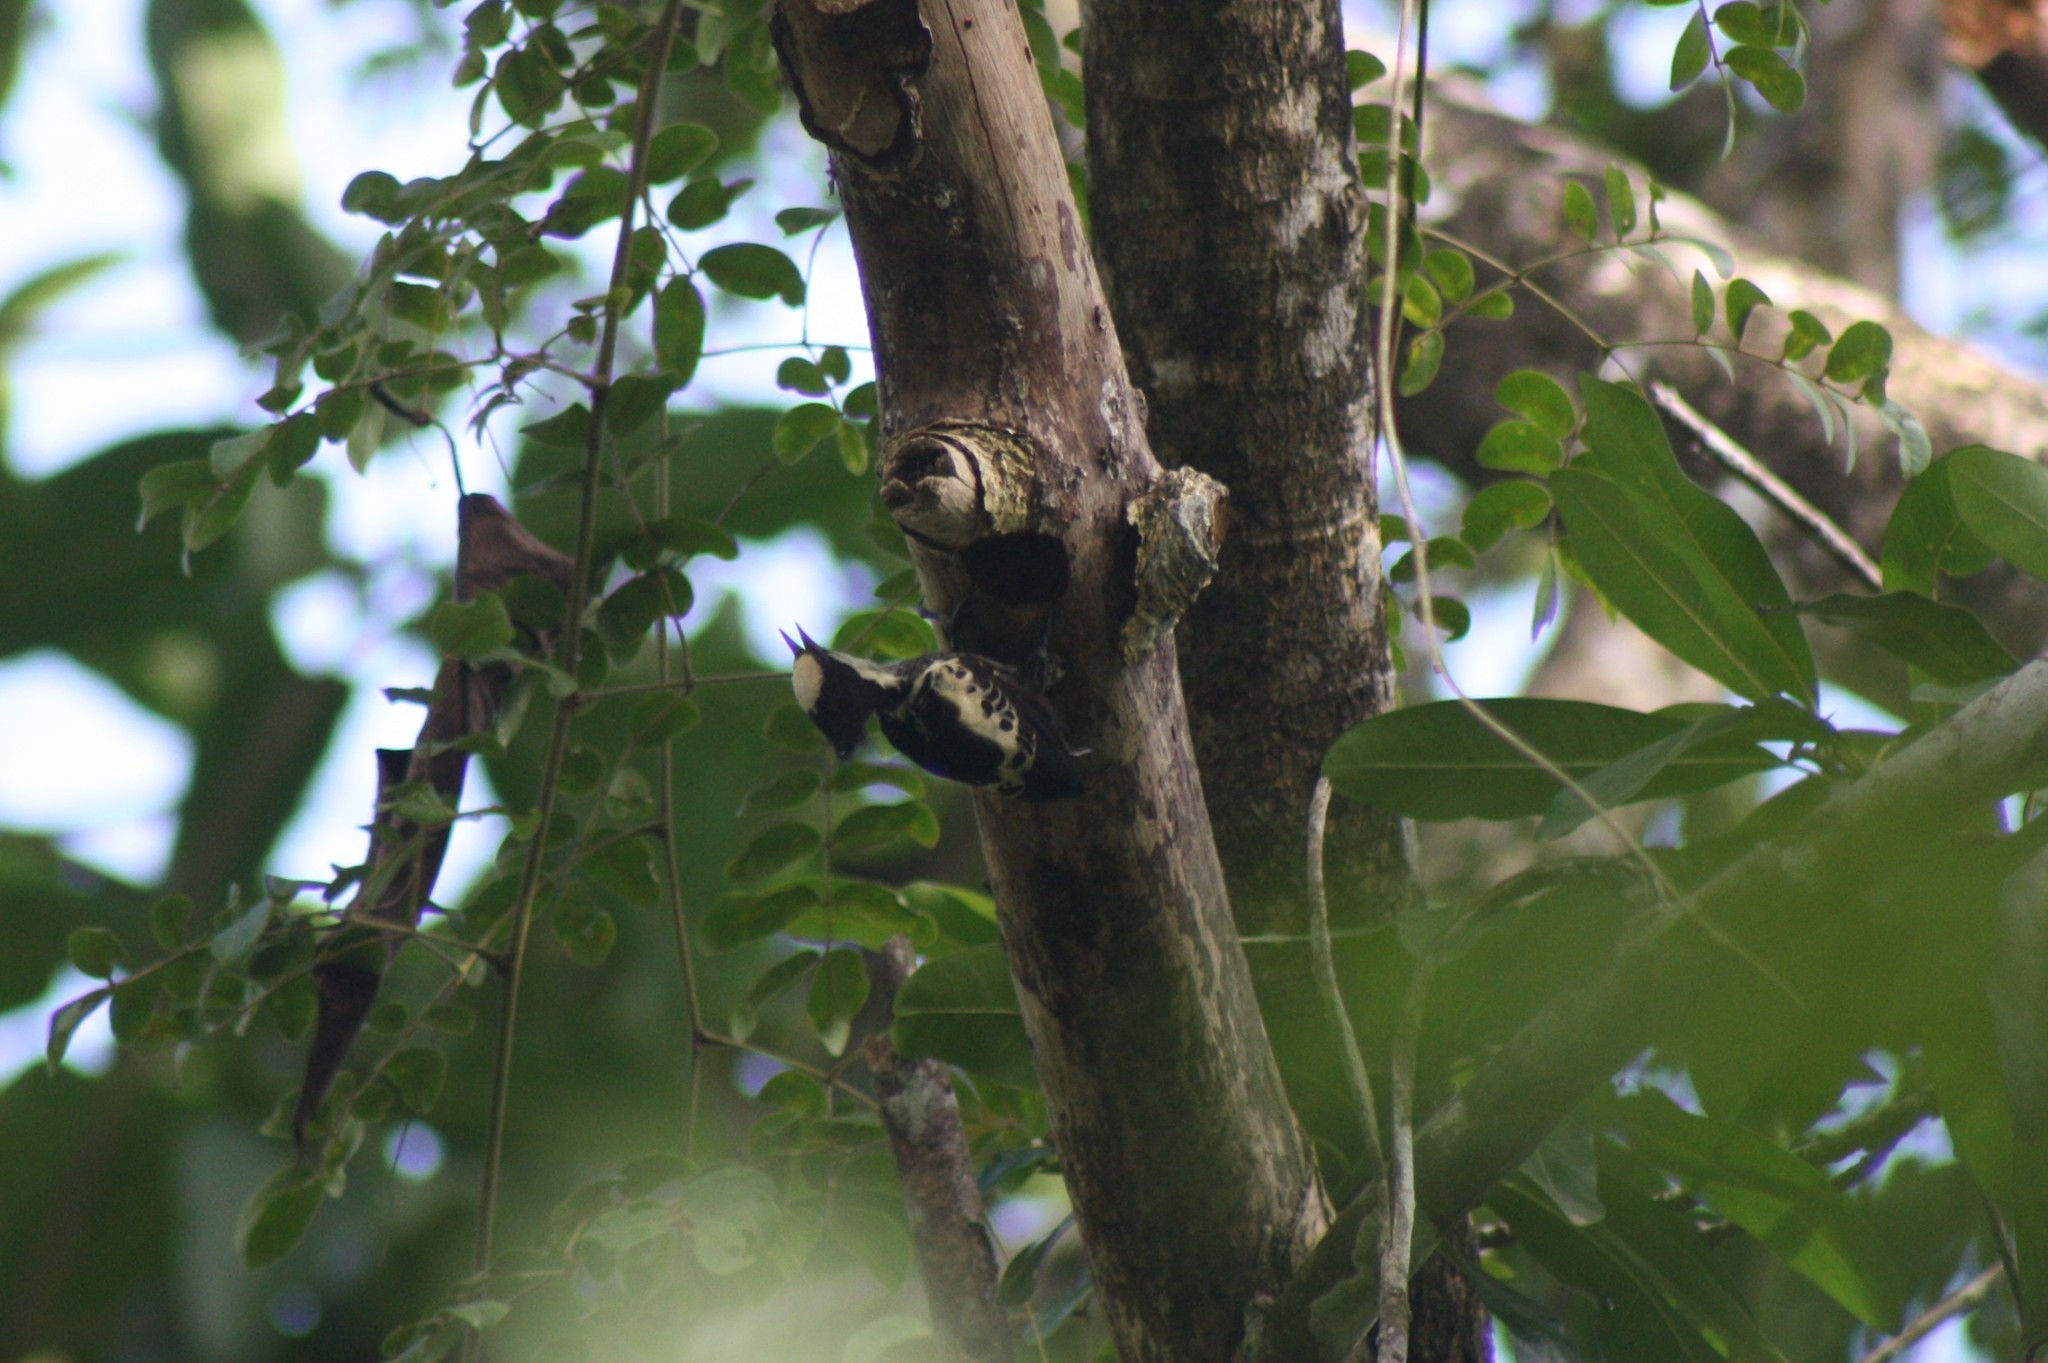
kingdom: Animalia
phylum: Chordata
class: Aves
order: Piciformes
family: Picidae
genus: Hemicircus
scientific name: Hemicircus canente
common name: Heart-spotted woodpecker
